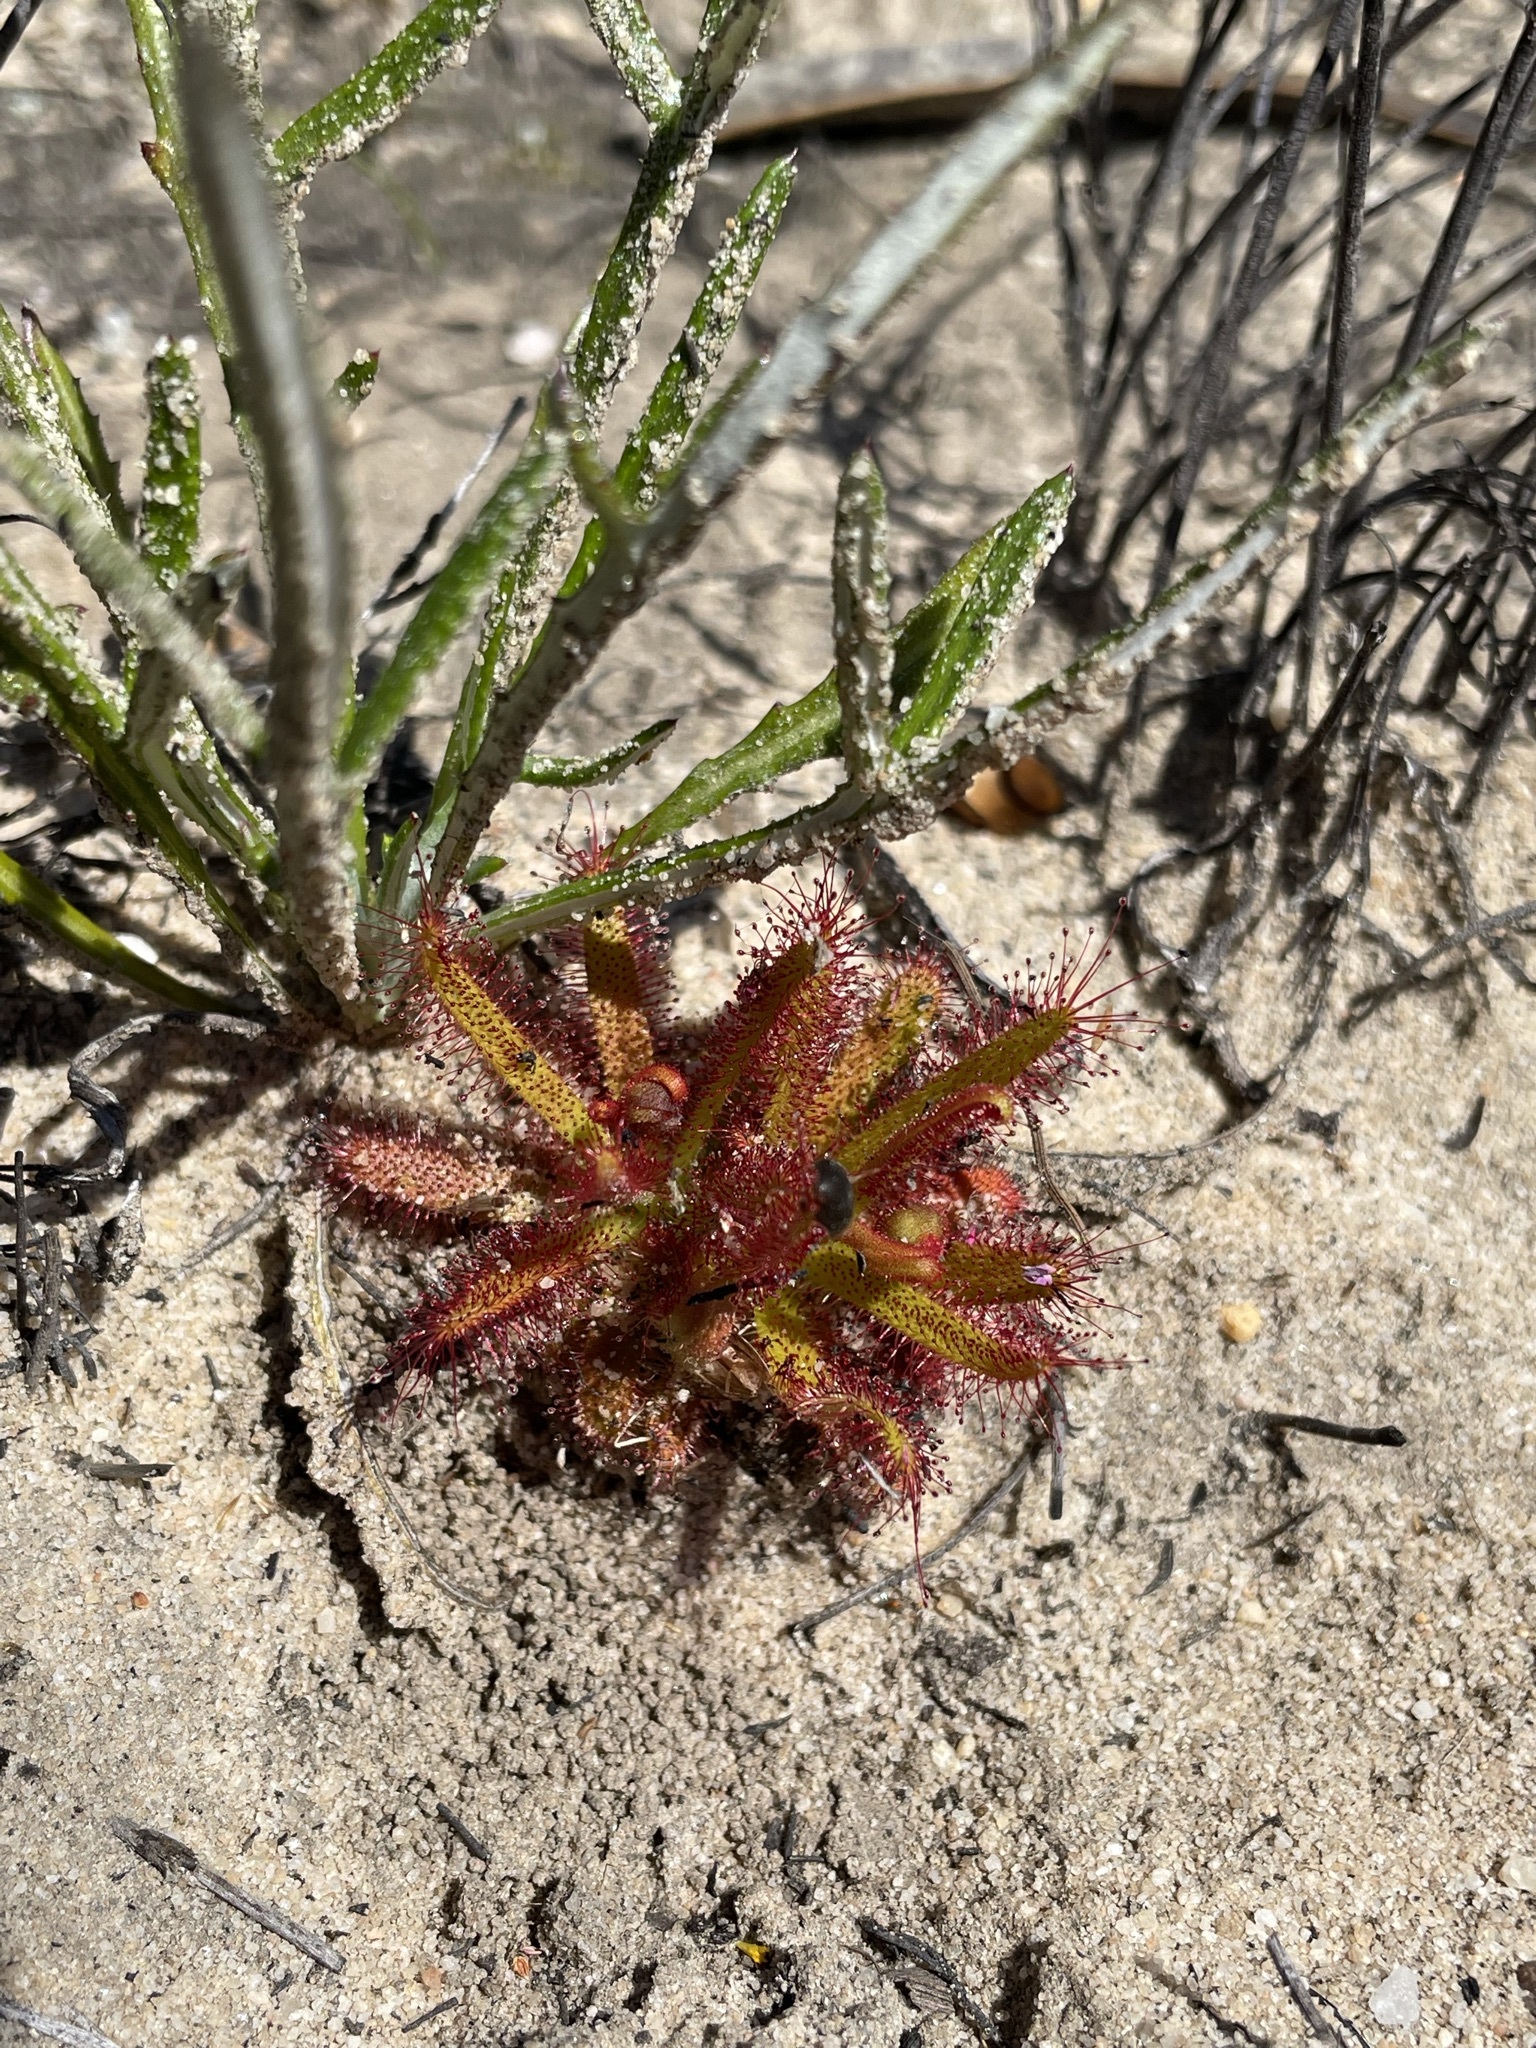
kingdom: Plantae
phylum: Tracheophyta
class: Magnoliopsida
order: Caryophyllales
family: Droseraceae
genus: Drosera
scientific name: Drosera cistiflora
